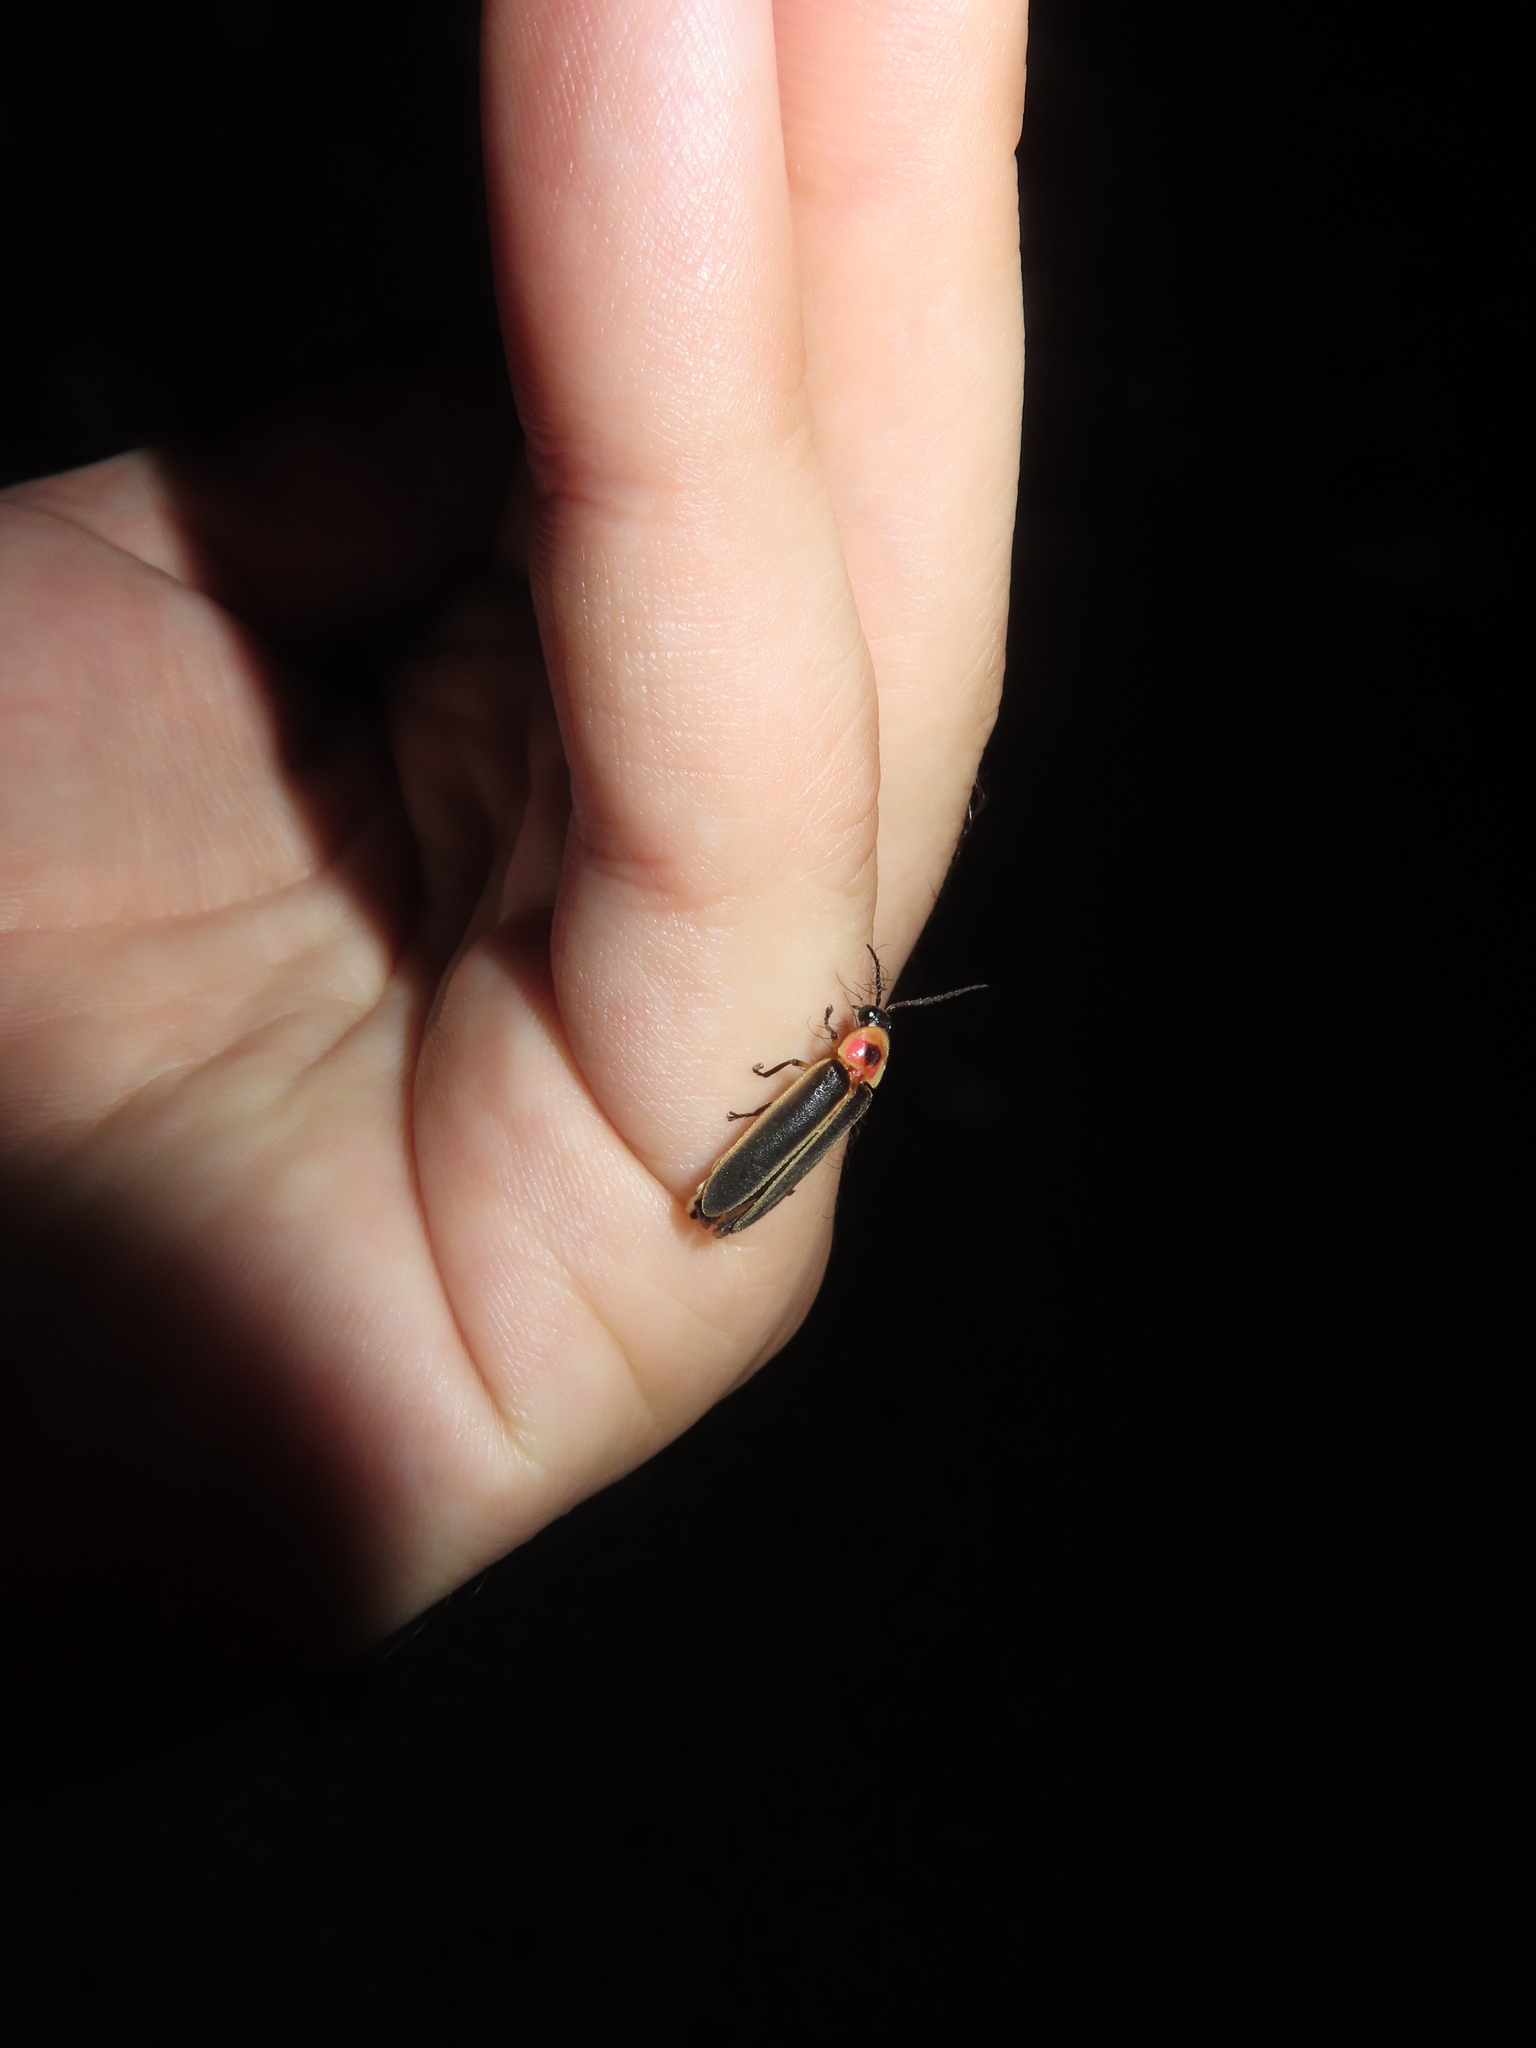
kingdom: Animalia
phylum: Arthropoda
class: Insecta
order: Coleoptera
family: Lampyridae
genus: Photinus
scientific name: Photinus pyralis
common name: Big dipper firefly
